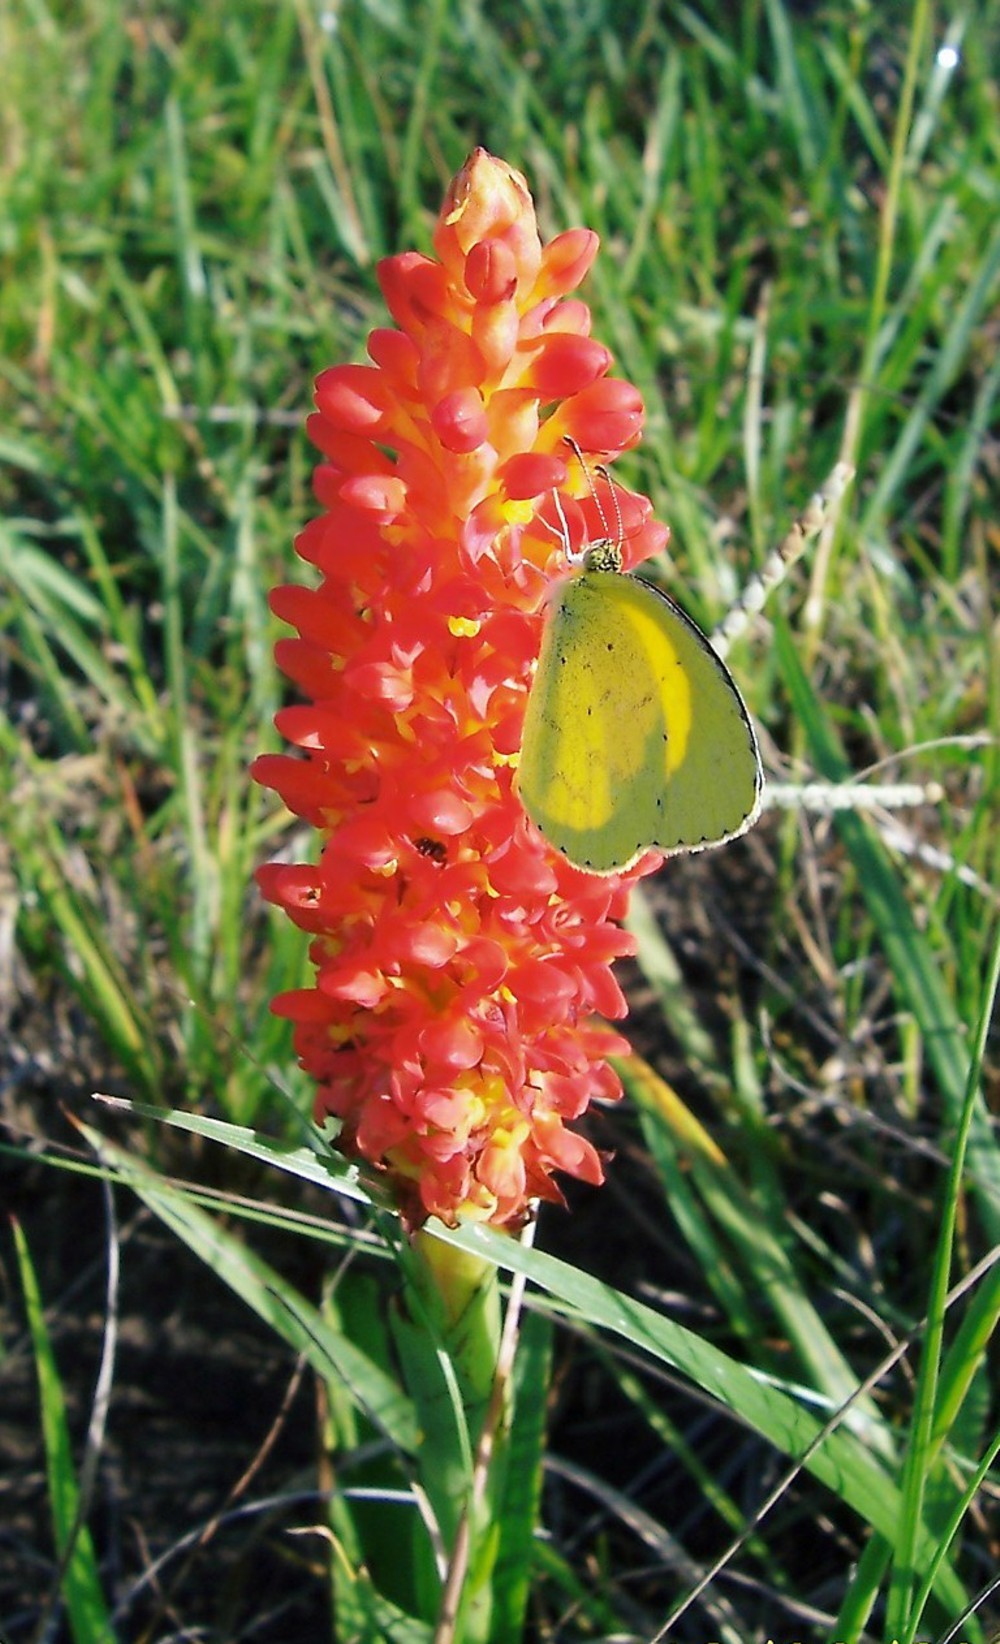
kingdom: Plantae
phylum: Tracheophyta
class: Liliopsida
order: Asparagales
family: Orchidaceae
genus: Disa
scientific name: Disa polygonoides
